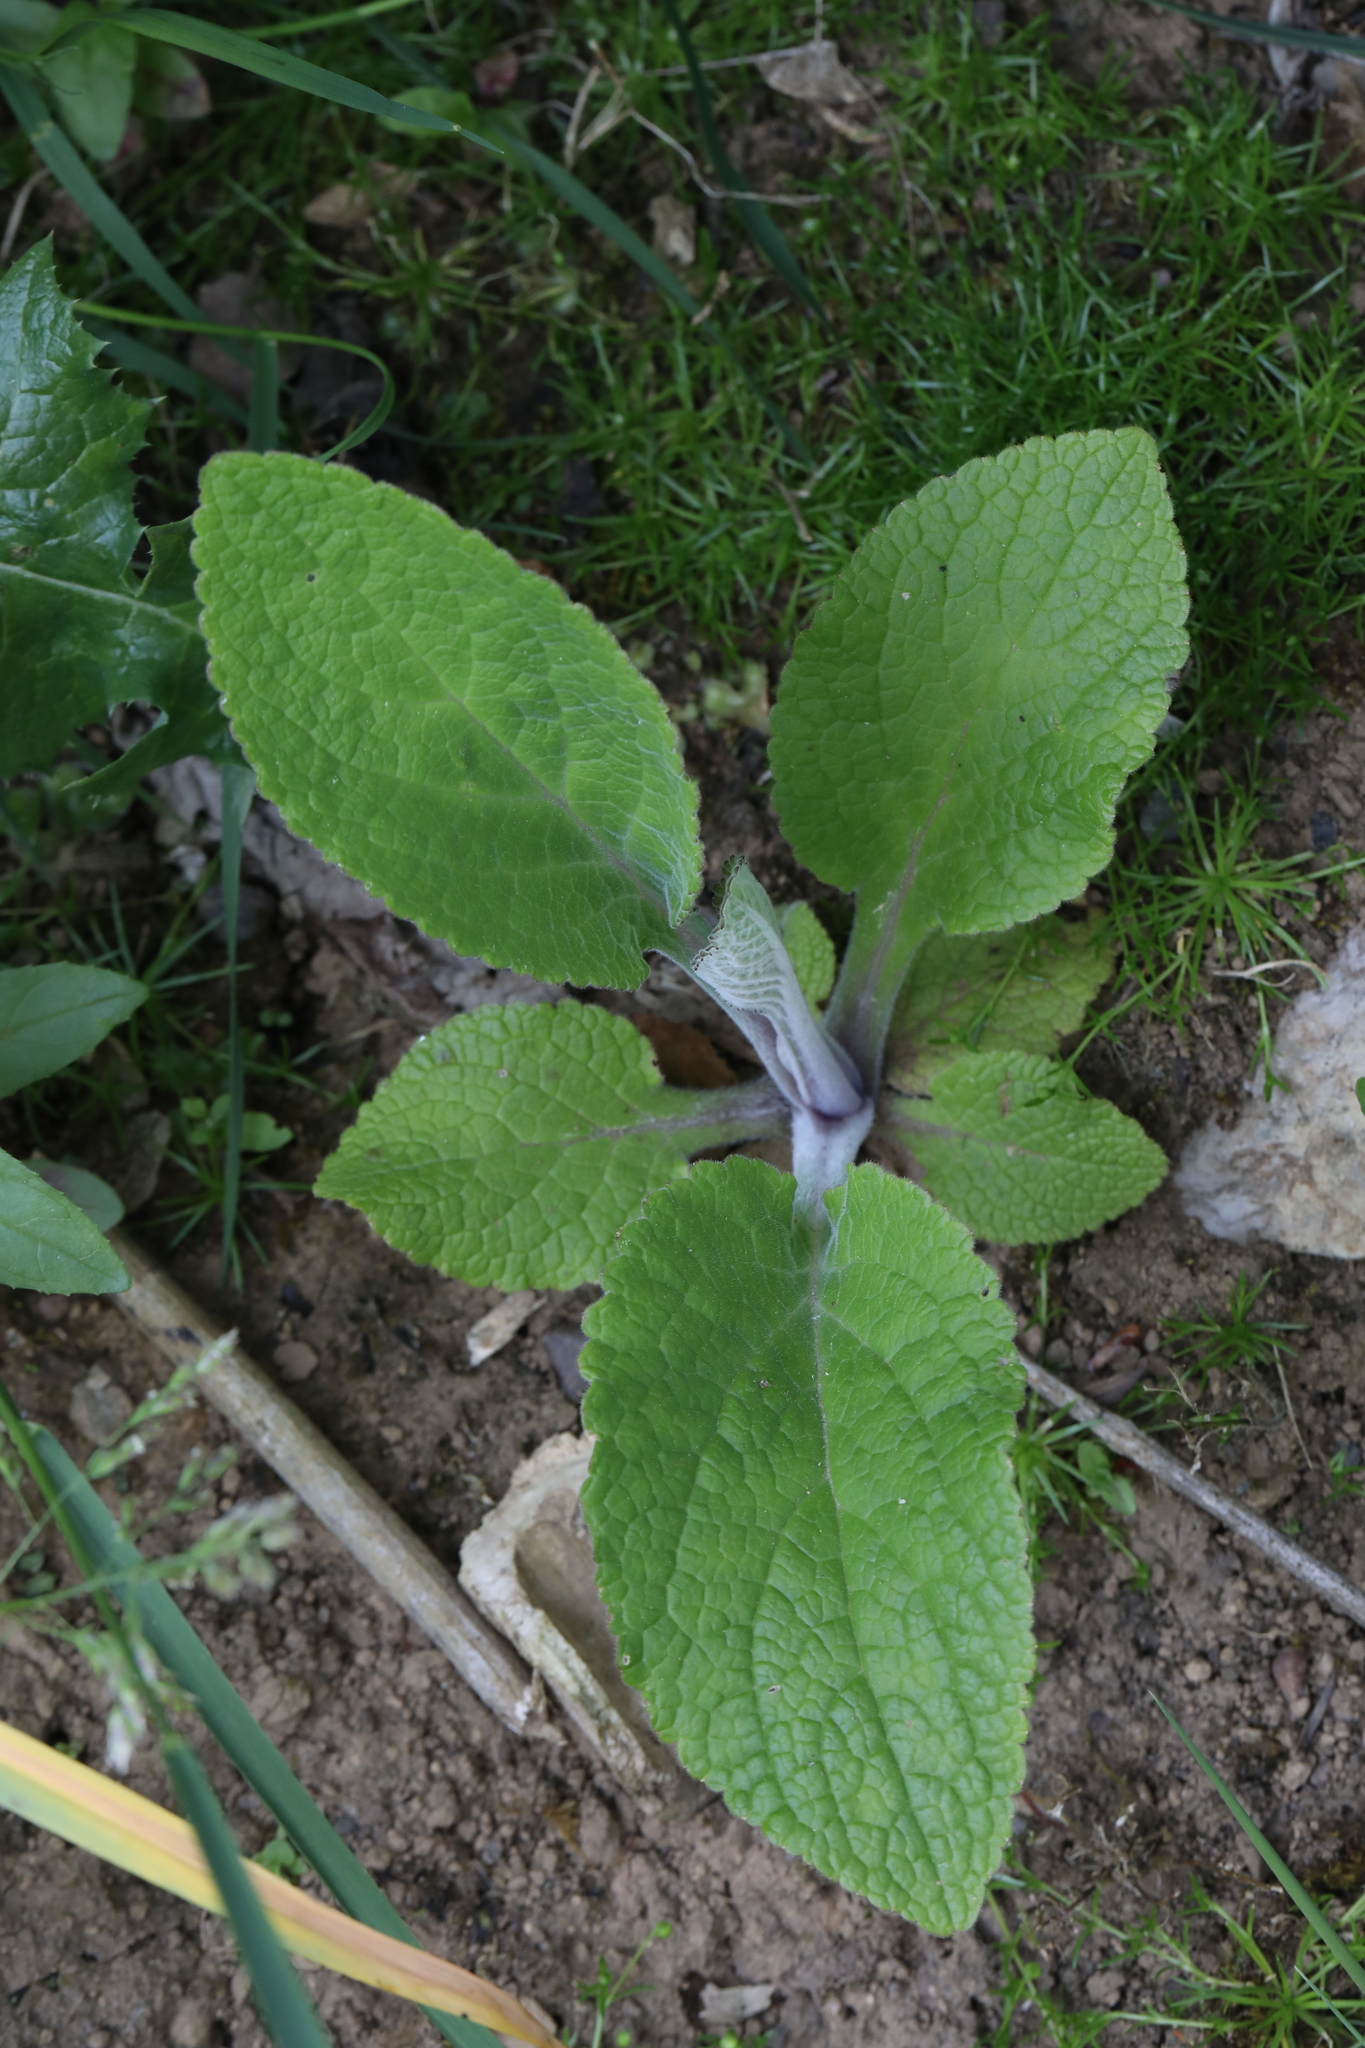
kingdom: Plantae
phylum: Tracheophyta
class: Magnoliopsida
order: Lamiales
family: Plantaginaceae
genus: Digitalis
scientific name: Digitalis purpurea
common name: Foxglove
